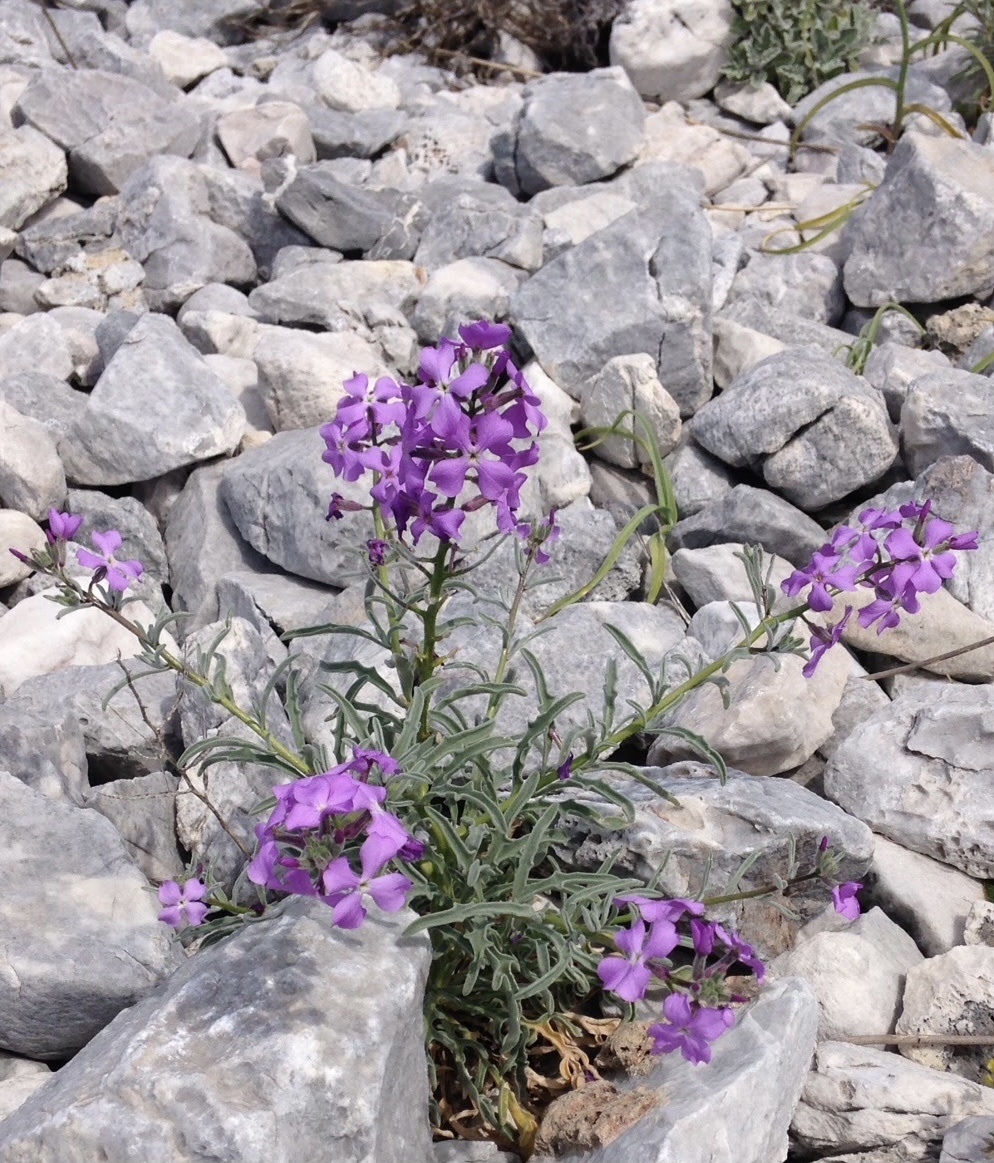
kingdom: Plantae
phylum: Tracheophyta
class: Magnoliopsida
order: Brassicales
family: Brassicaceae
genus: Matthiola
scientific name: Matthiola sinuata
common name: Sea stock
